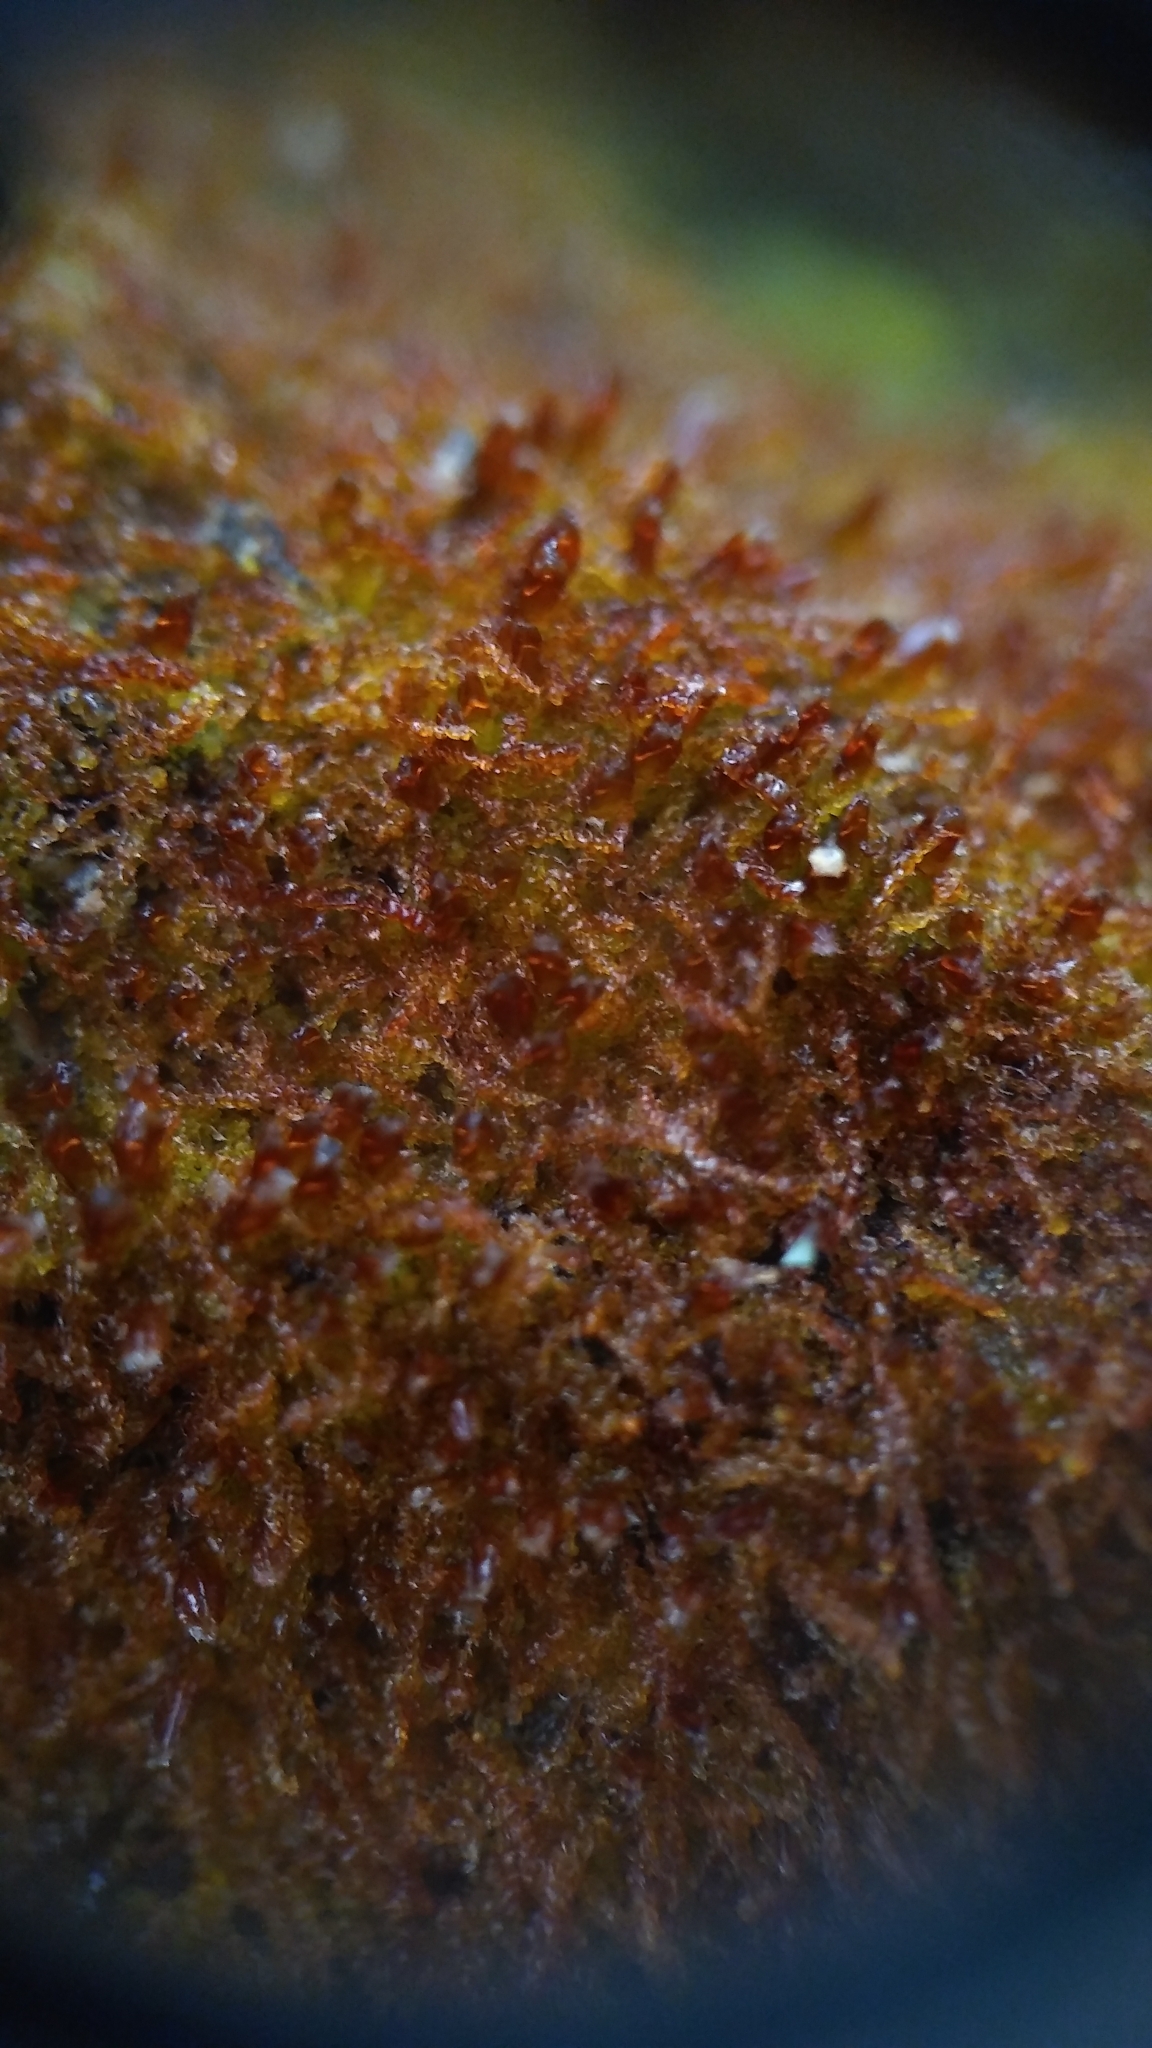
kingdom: Plantae
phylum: Marchantiophyta
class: Jungermanniopsida
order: Jungermanniales
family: Cephaloziaceae
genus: Nowellia
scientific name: Nowellia curvifolia
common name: Wood rustwort
